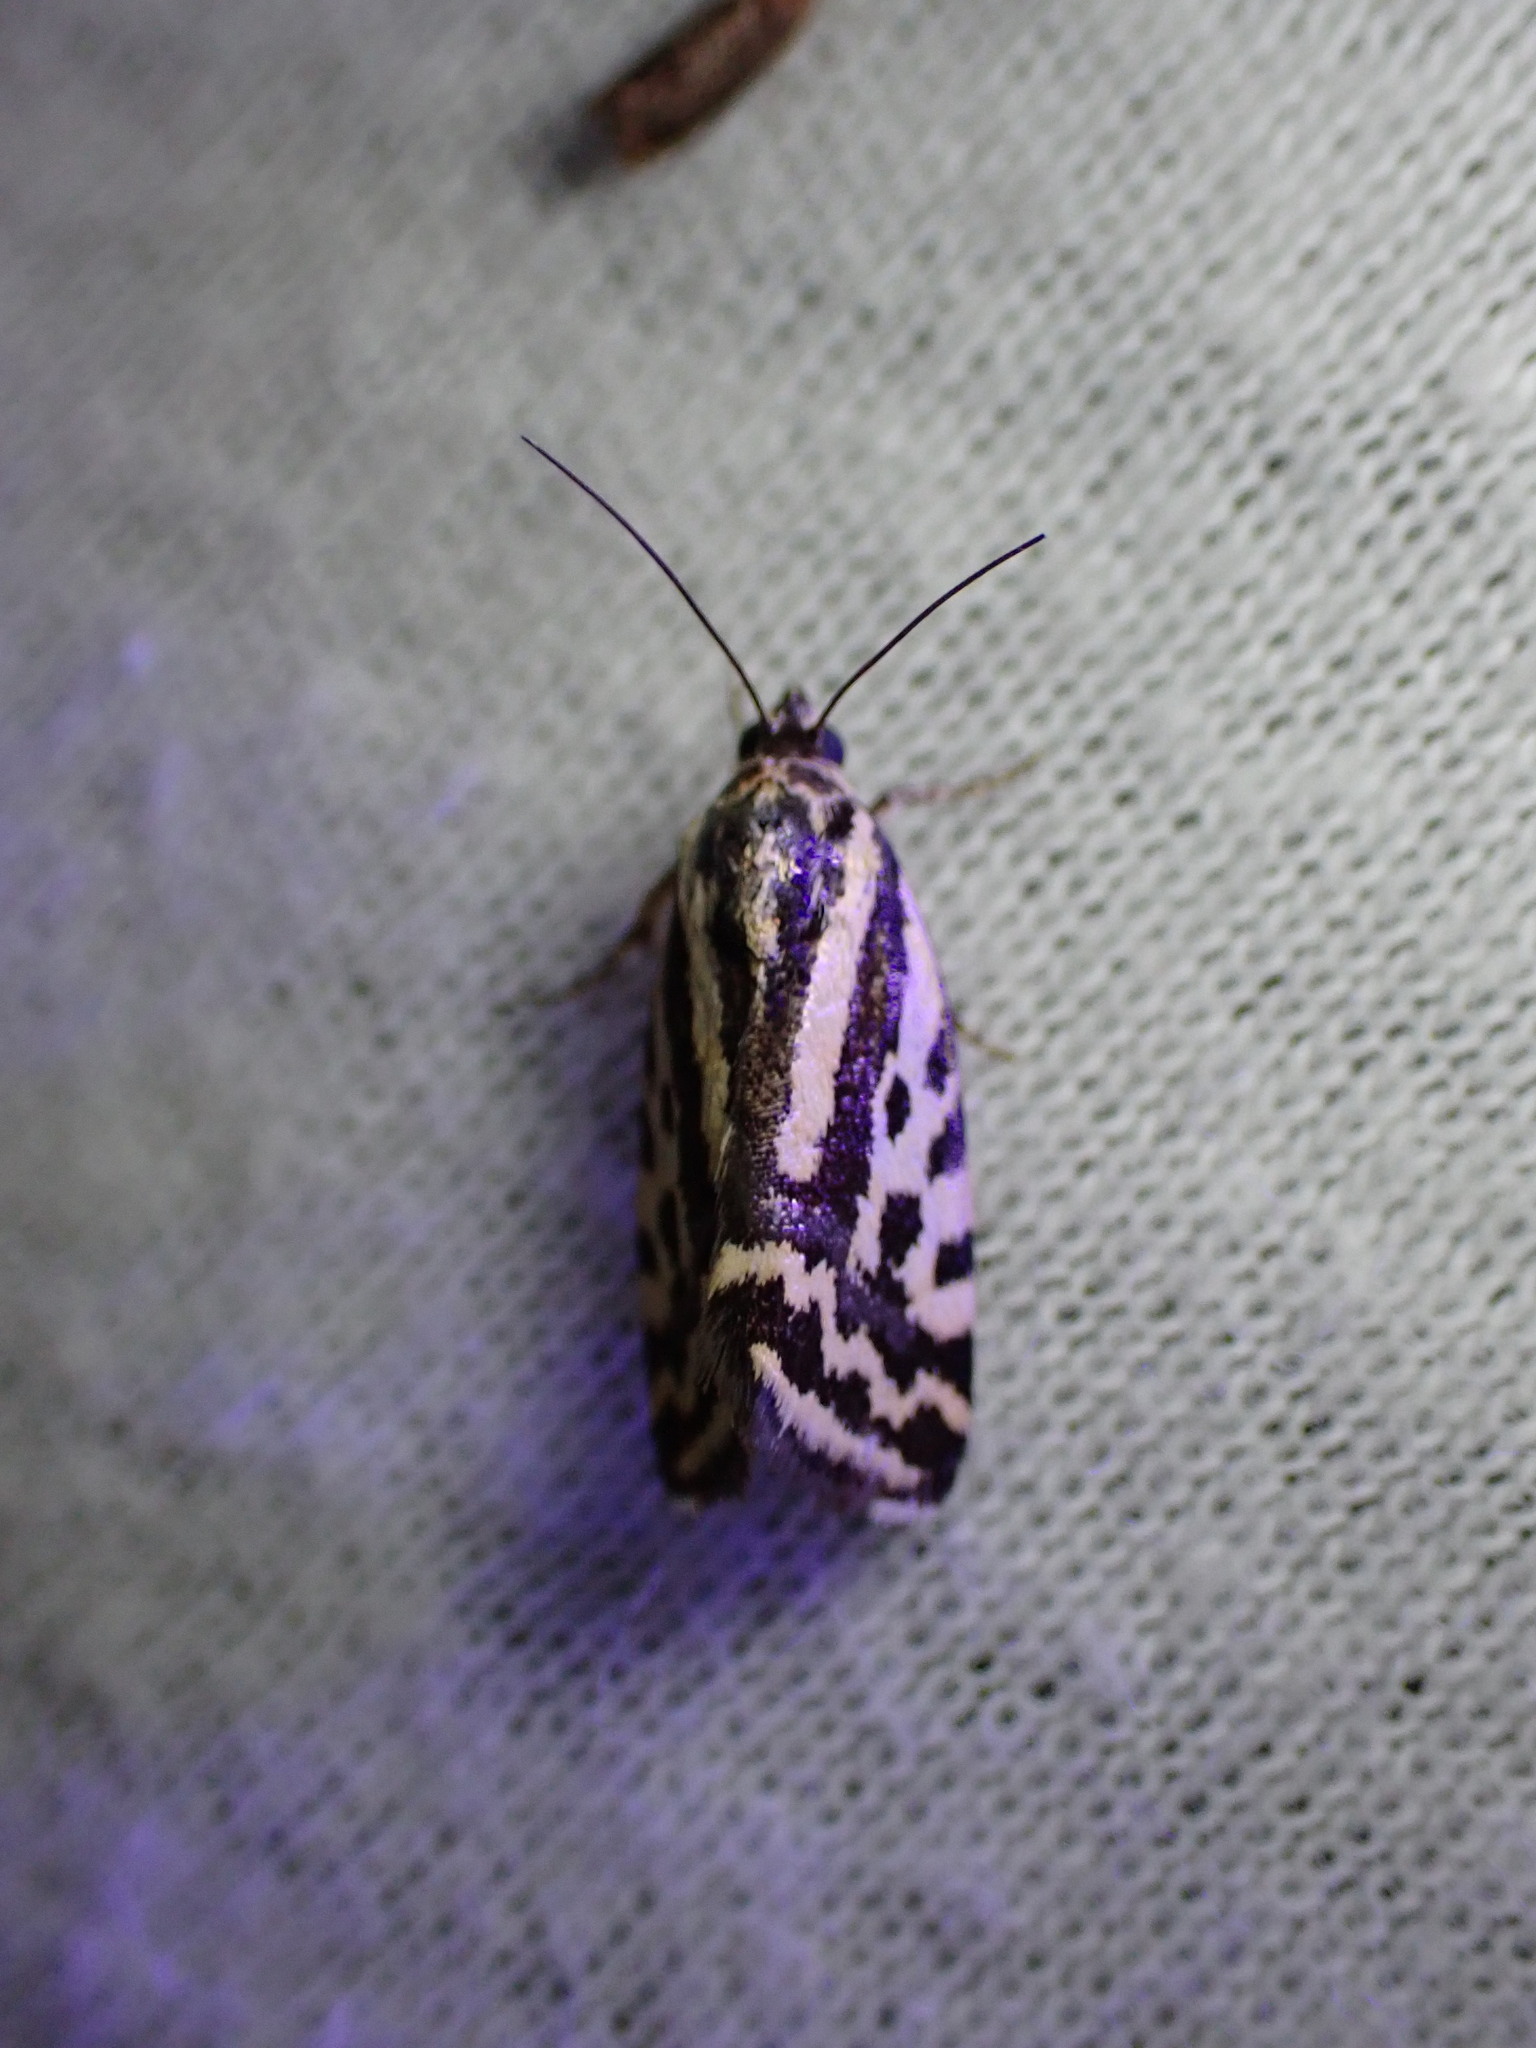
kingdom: Animalia
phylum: Arthropoda
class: Insecta
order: Lepidoptera
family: Noctuidae
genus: Acontia
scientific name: Acontia trabealis
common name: Spotted sulphur
